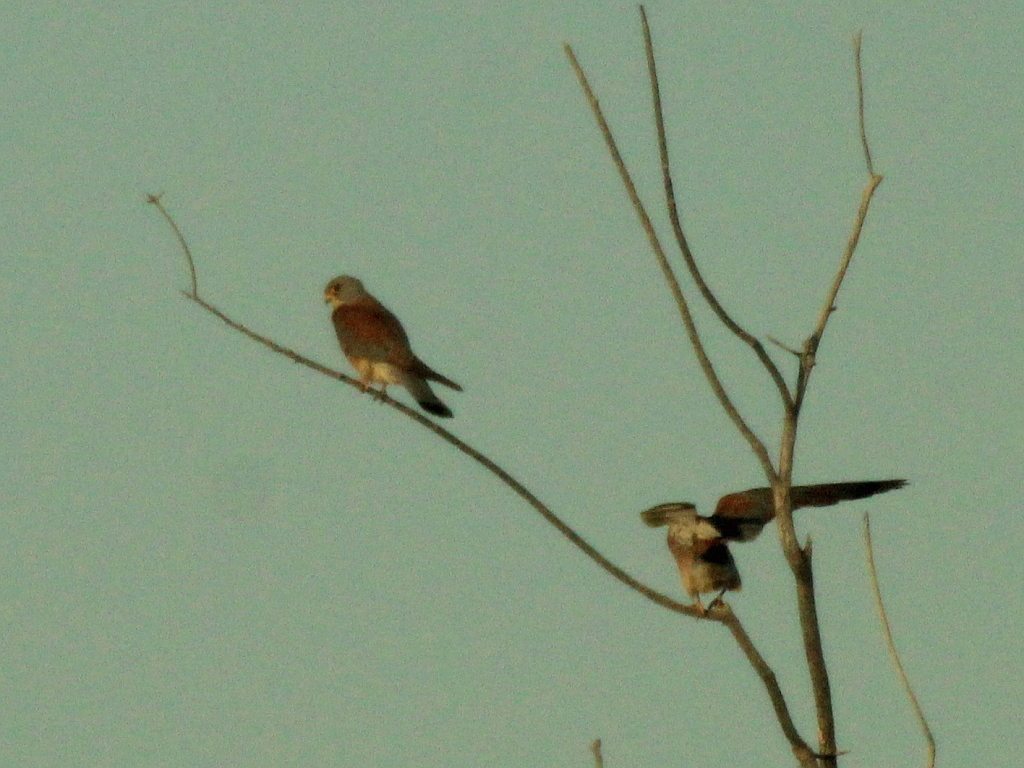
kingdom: Animalia
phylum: Chordata
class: Aves
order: Falconiformes
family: Falconidae
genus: Falco
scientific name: Falco naumanni
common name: Lesser kestrel
